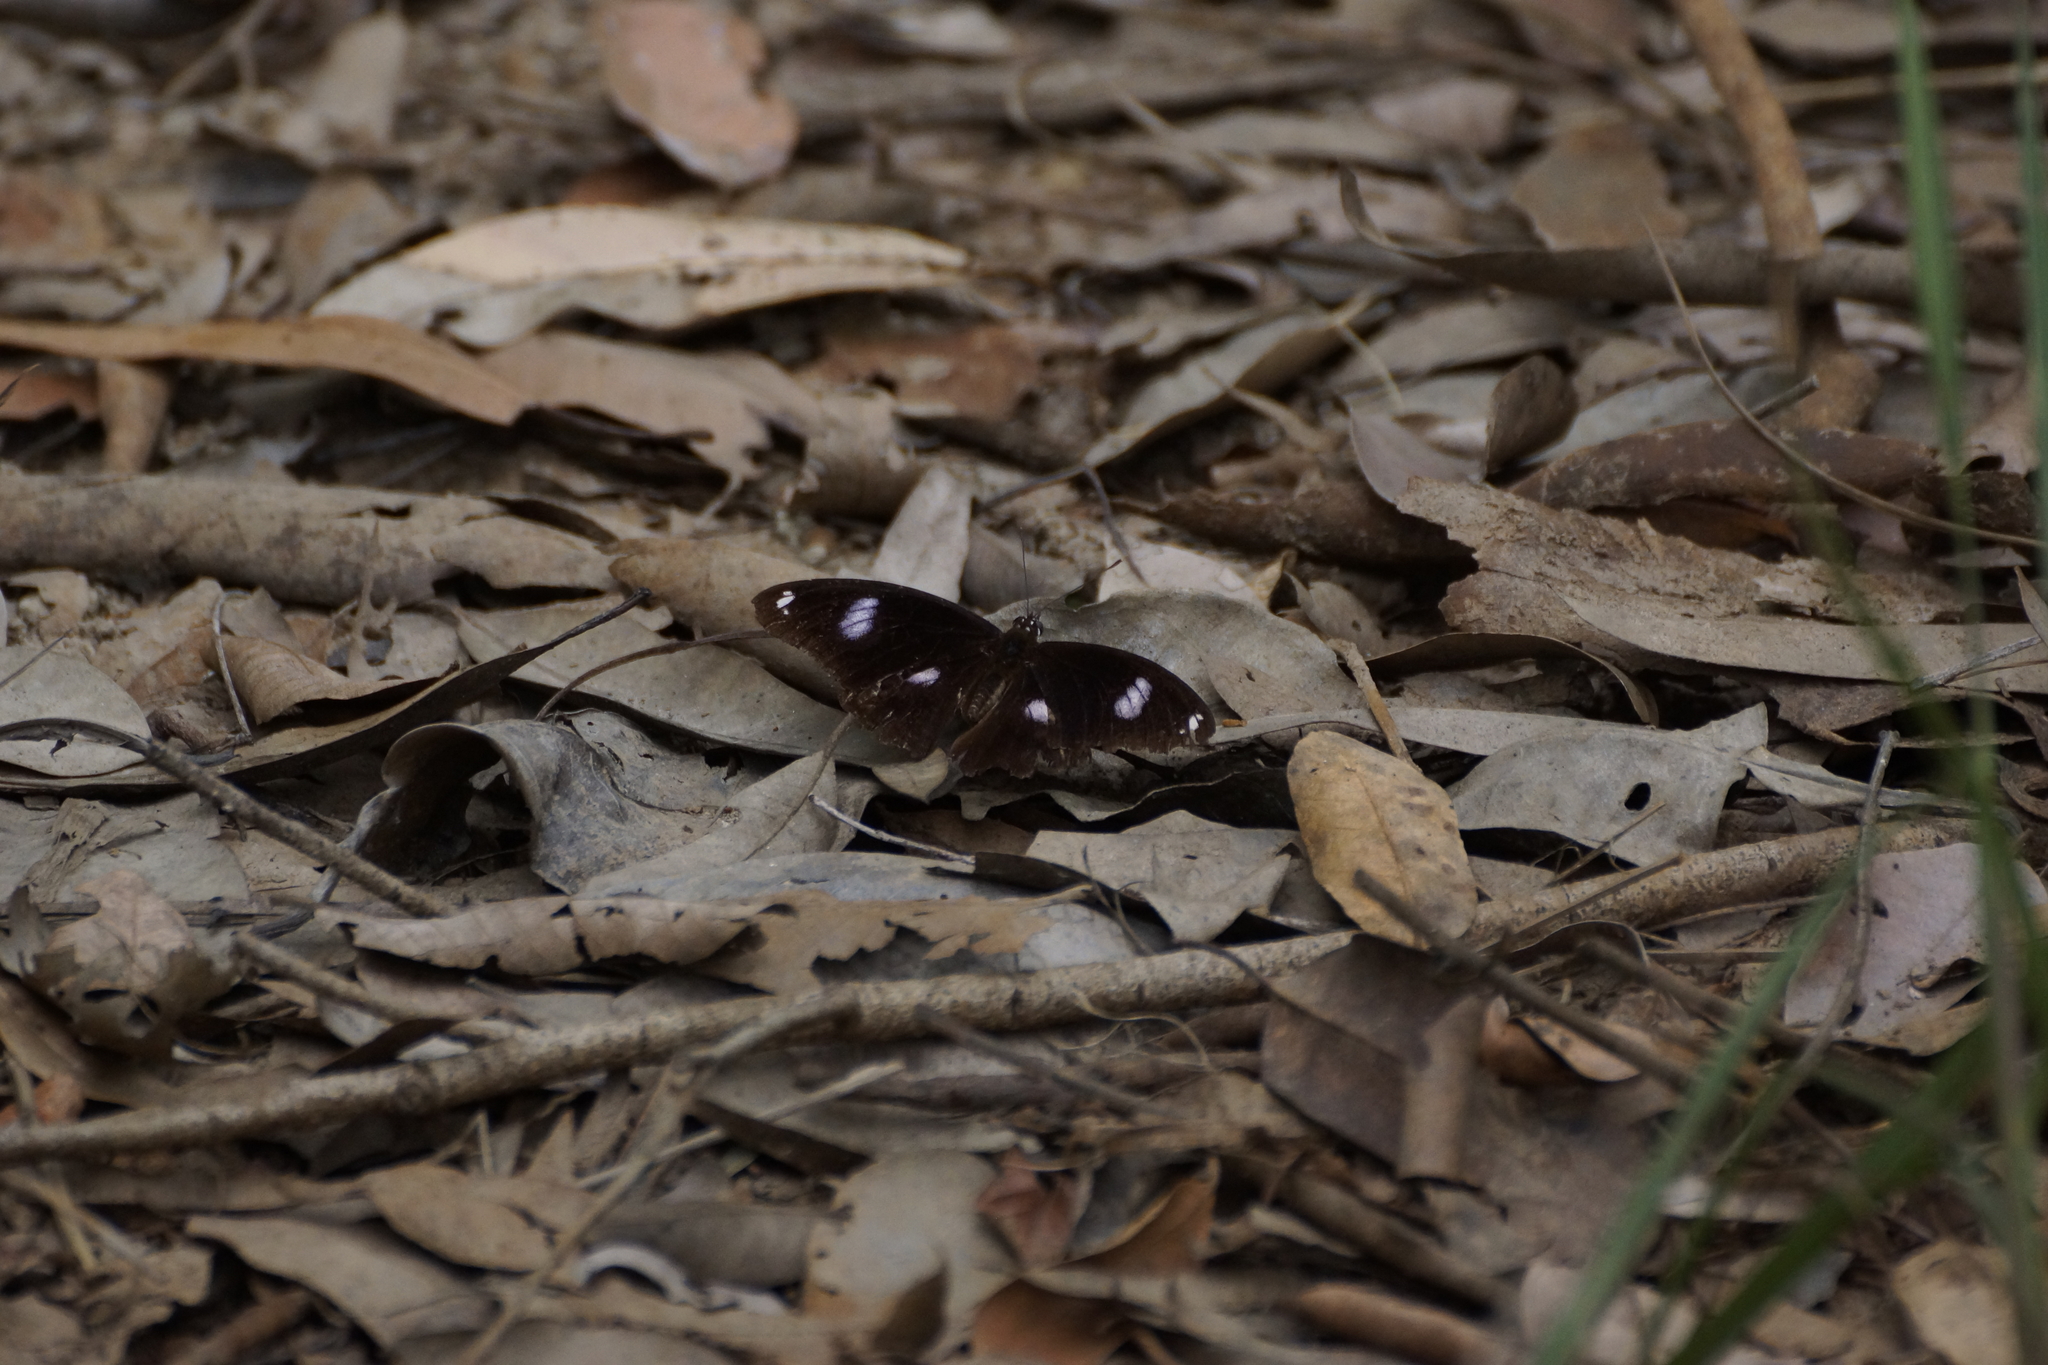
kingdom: Animalia
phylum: Arthropoda
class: Insecta
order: Lepidoptera
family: Nymphalidae
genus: Hypolimnas
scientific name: Hypolimnas bolina
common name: Great eggfly
